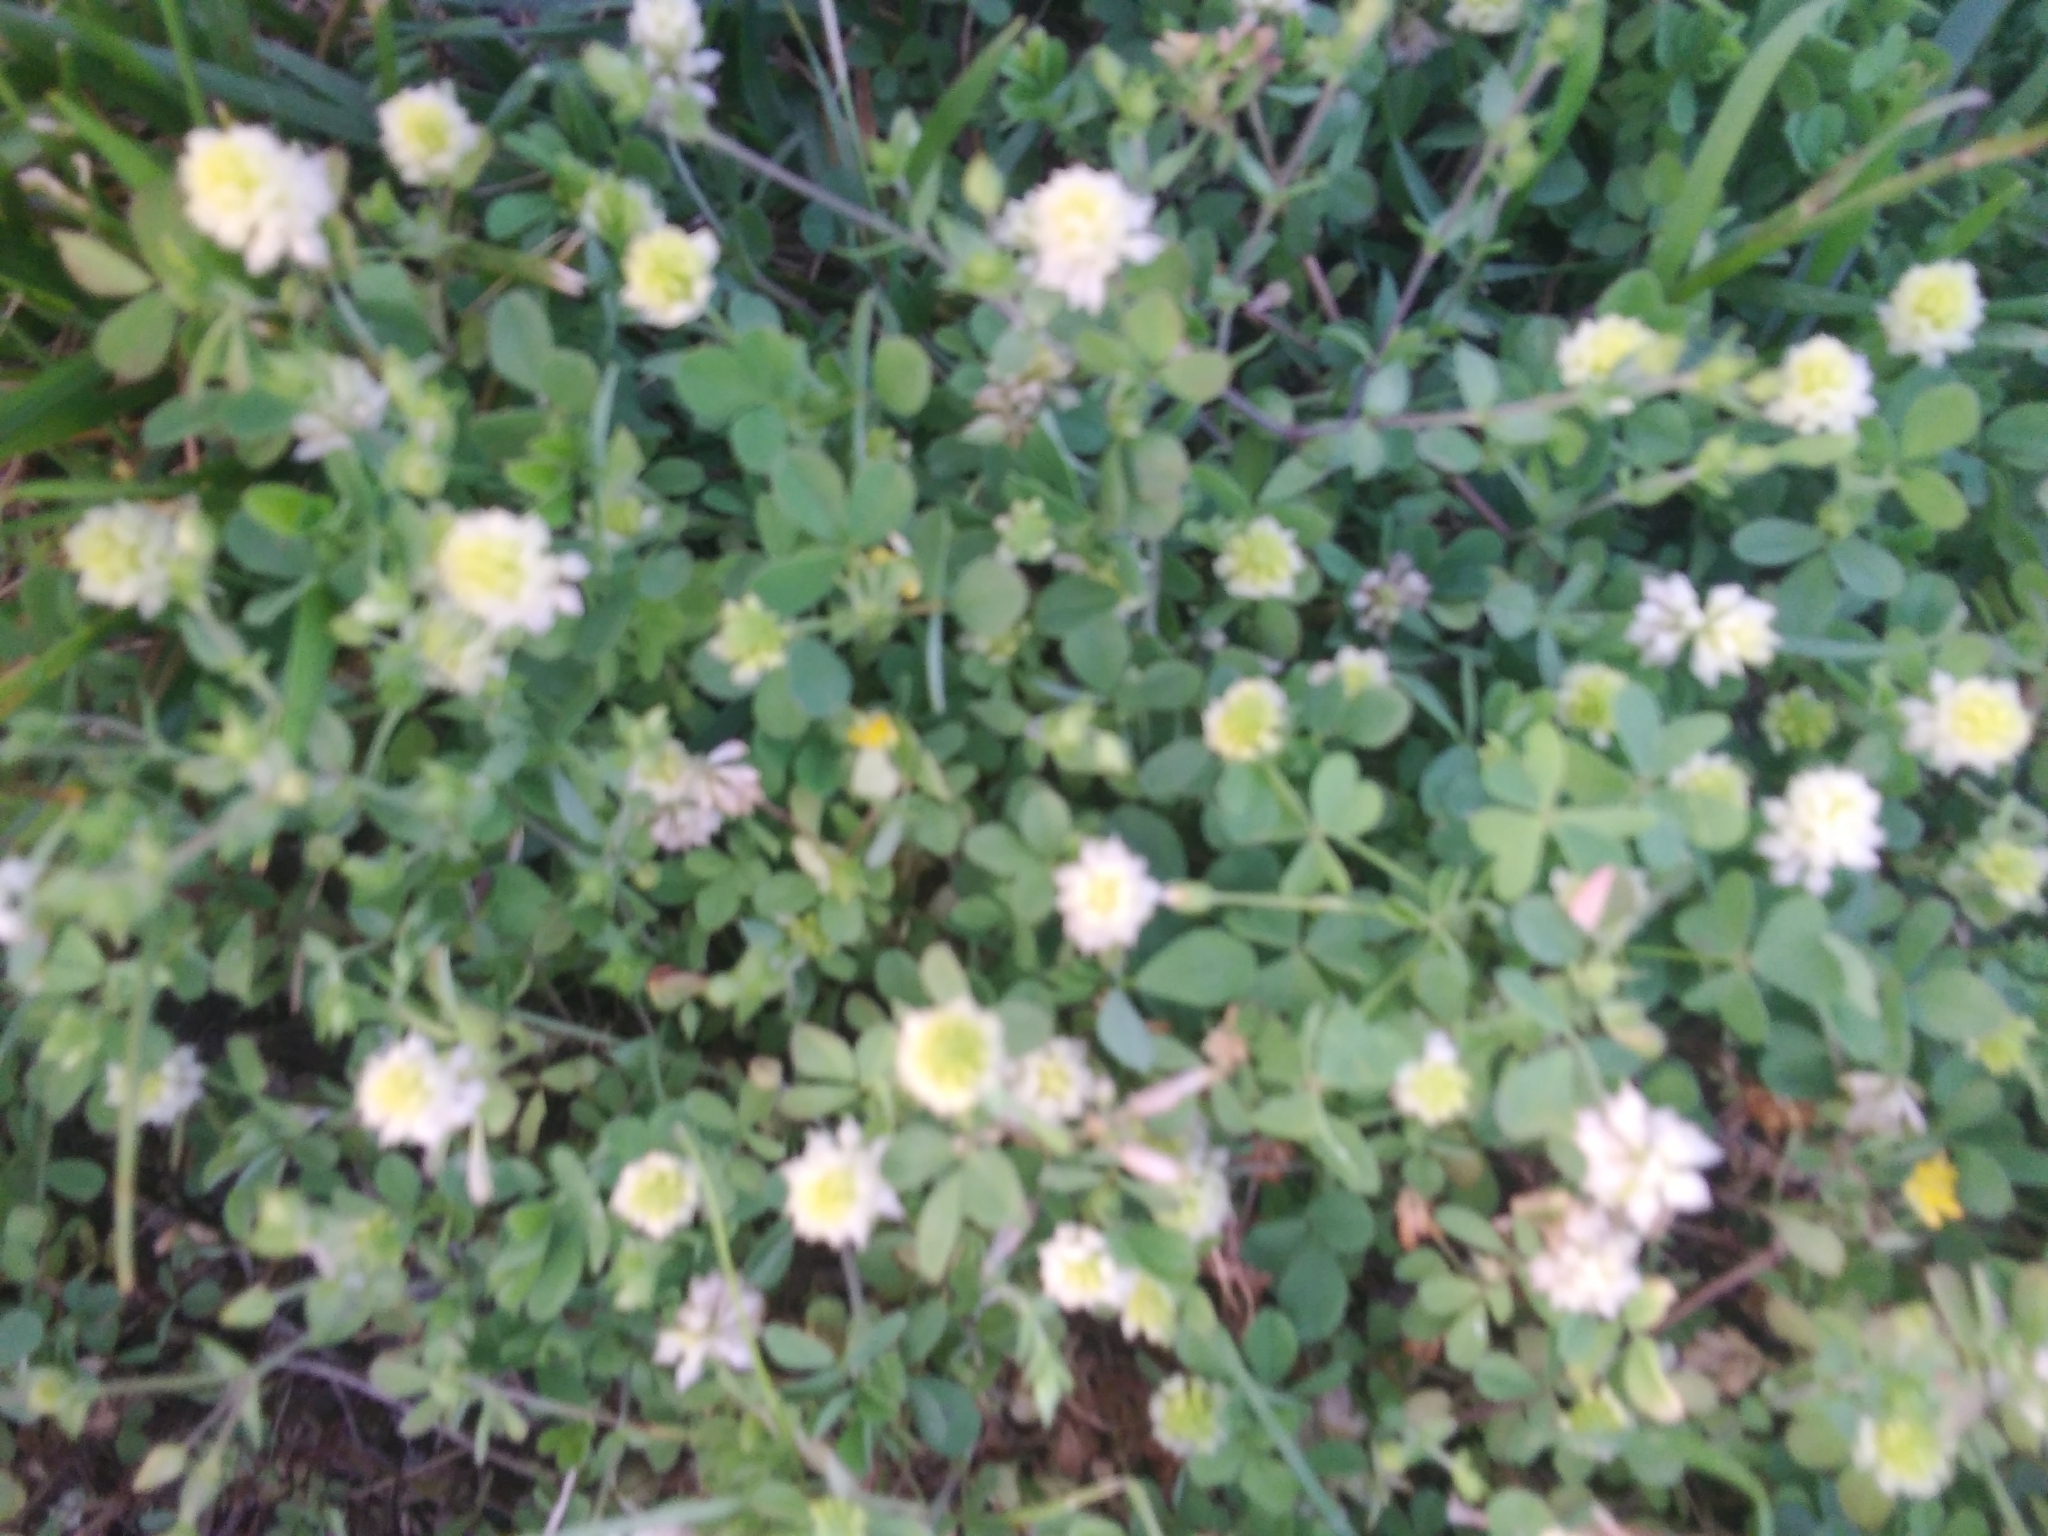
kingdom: Plantae
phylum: Tracheophyta
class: Magnoliopsida
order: Fabales
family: Fabaceae
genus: Trifolium
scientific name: Trifolium campestre
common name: Field clover
